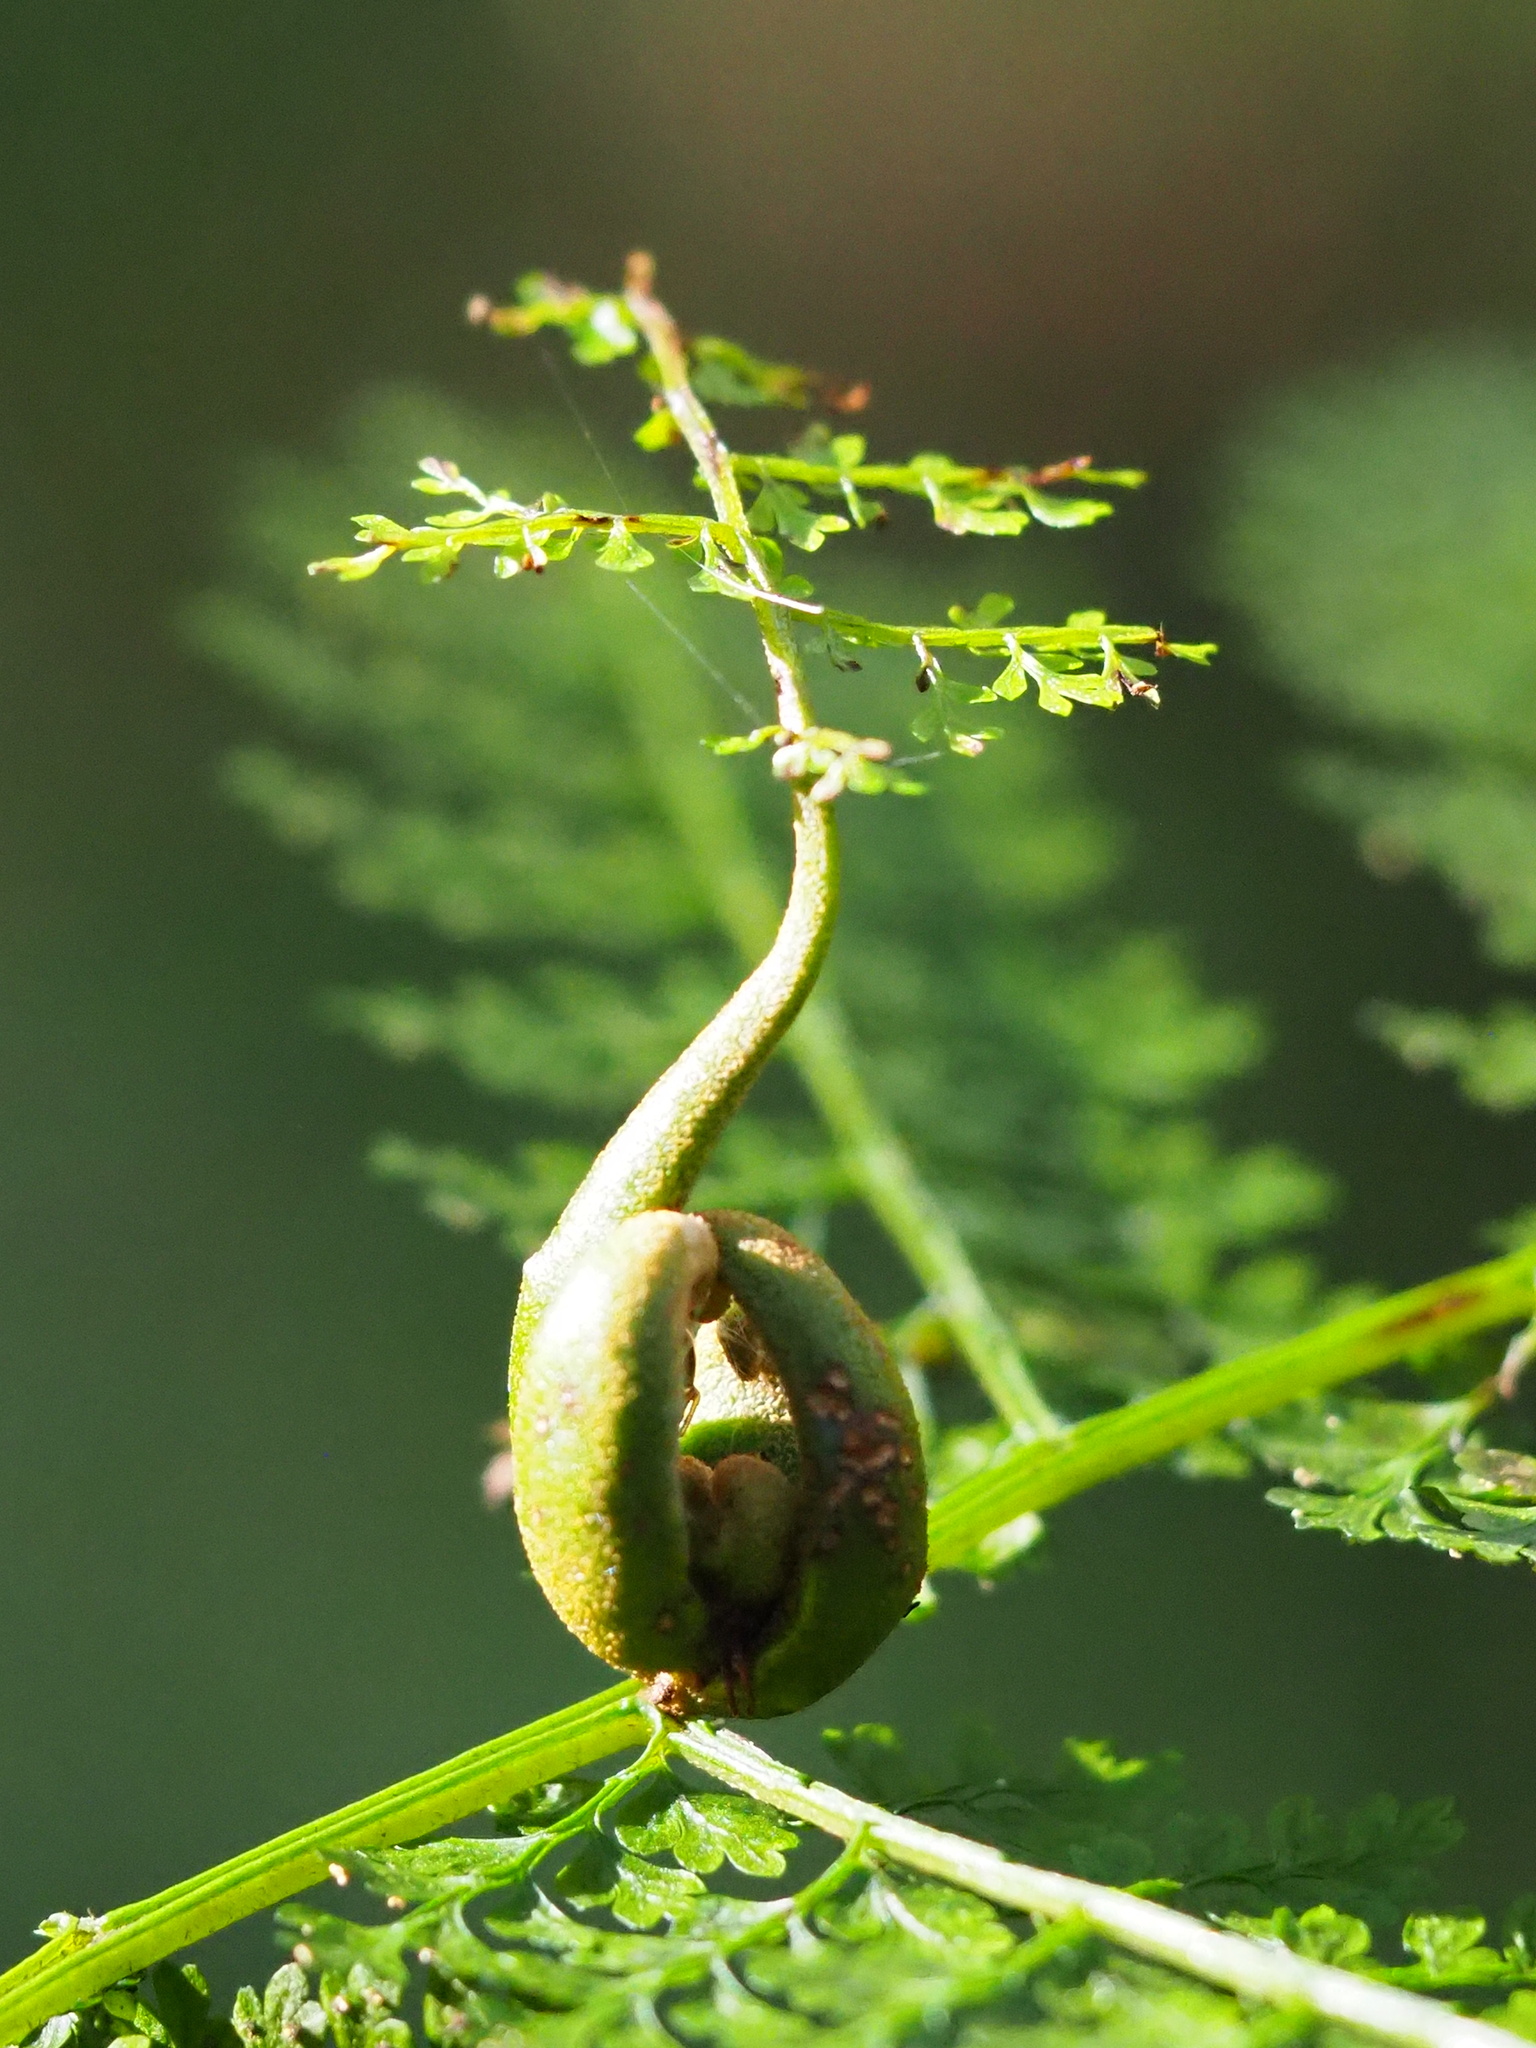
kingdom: Plantae
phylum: Tracheophyta
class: Polypodiopsida
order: Polypodiales
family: Dennstaedtiaceae
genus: Monachosorum
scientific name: Monachosorum henryi
